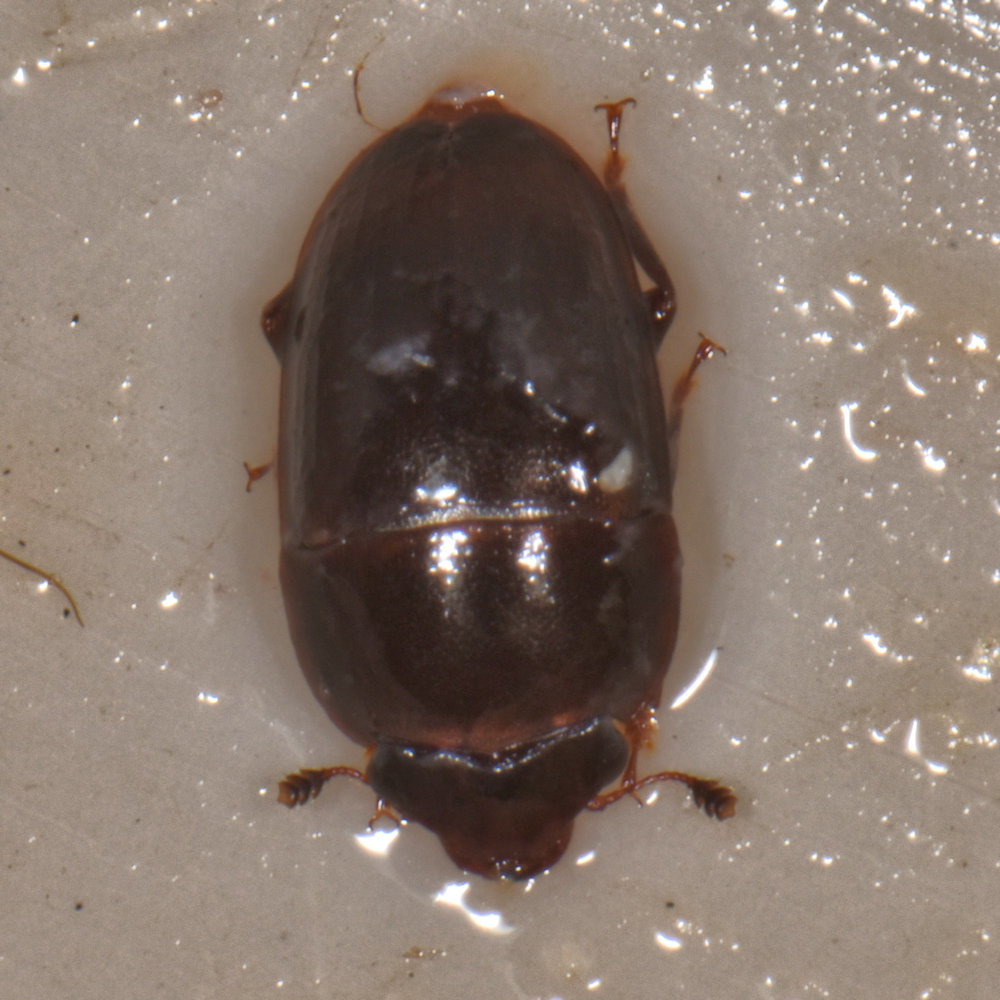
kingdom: Animalia
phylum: Arthropoda
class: Insecta
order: Coleoptera
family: Nitidulidae
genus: Cryptarcha
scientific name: Cryptarcha ampla
